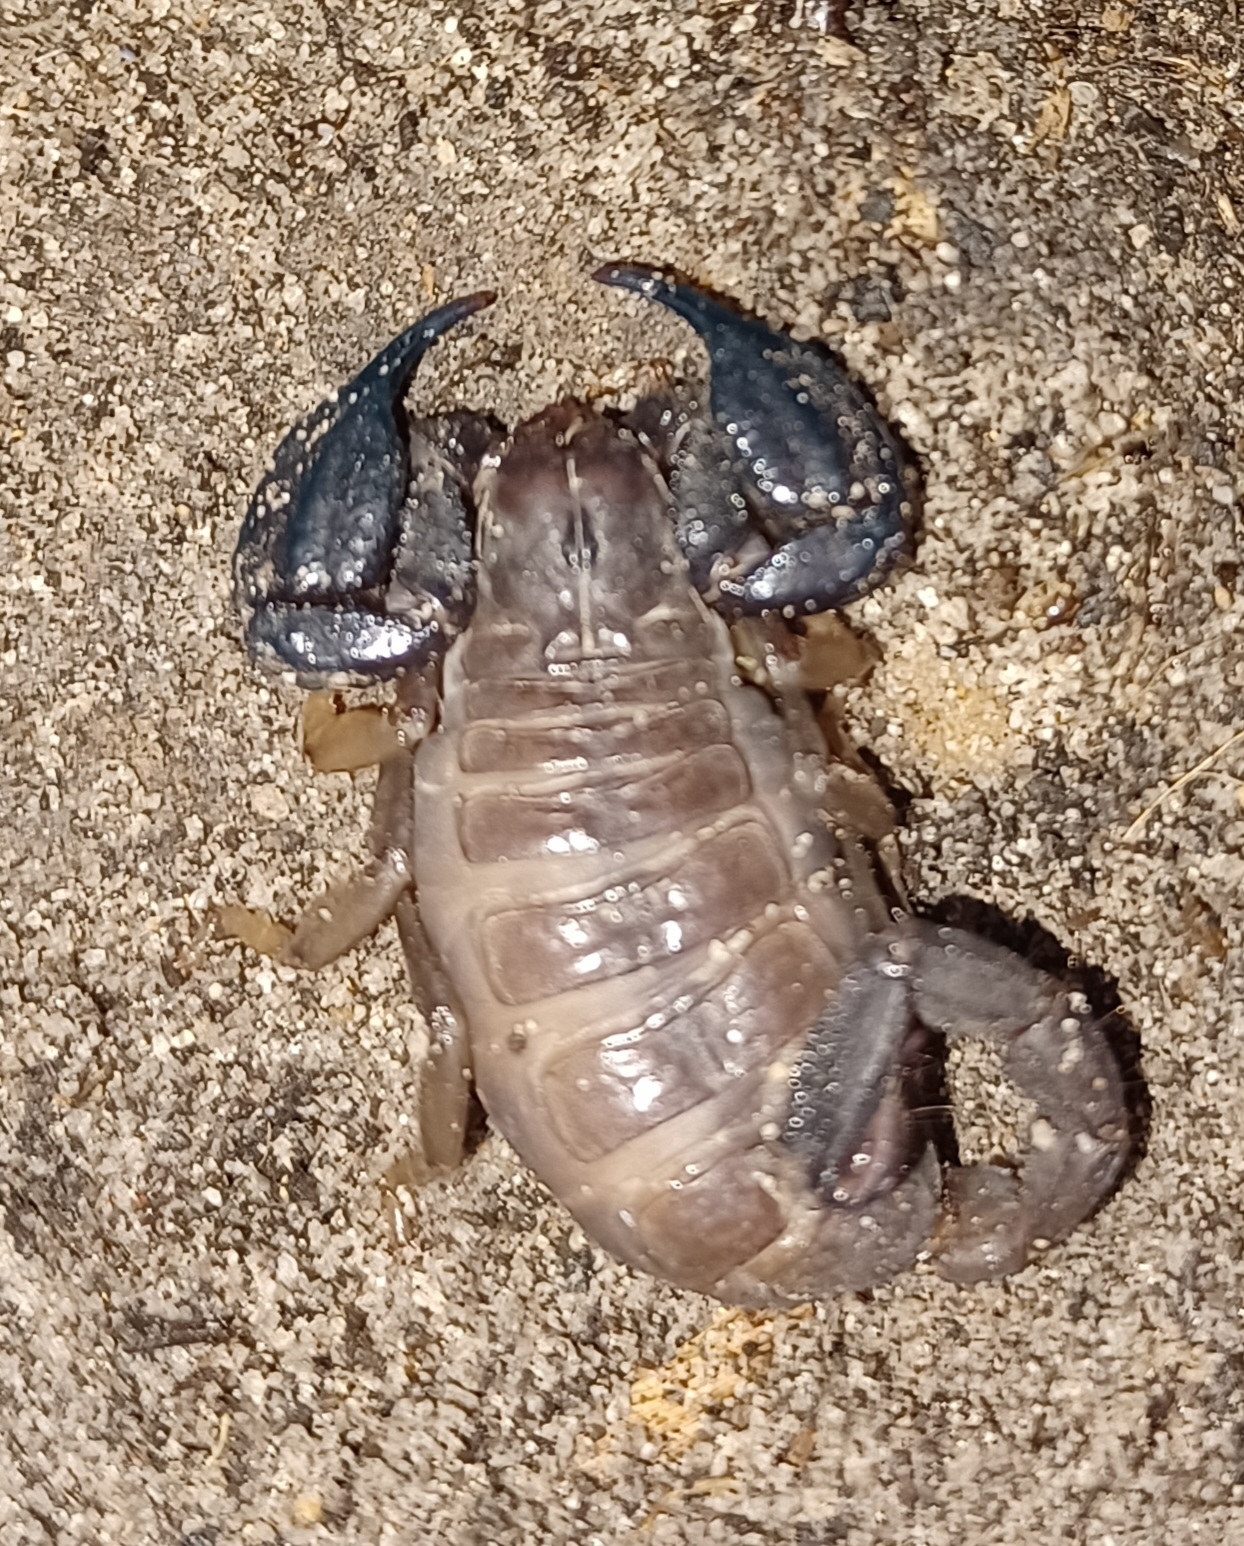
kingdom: Animalia
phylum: Arthropoda
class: Arachnida
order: Scorpiones
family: Scorpionidae
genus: Urodacus
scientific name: Urodacus manicatus
